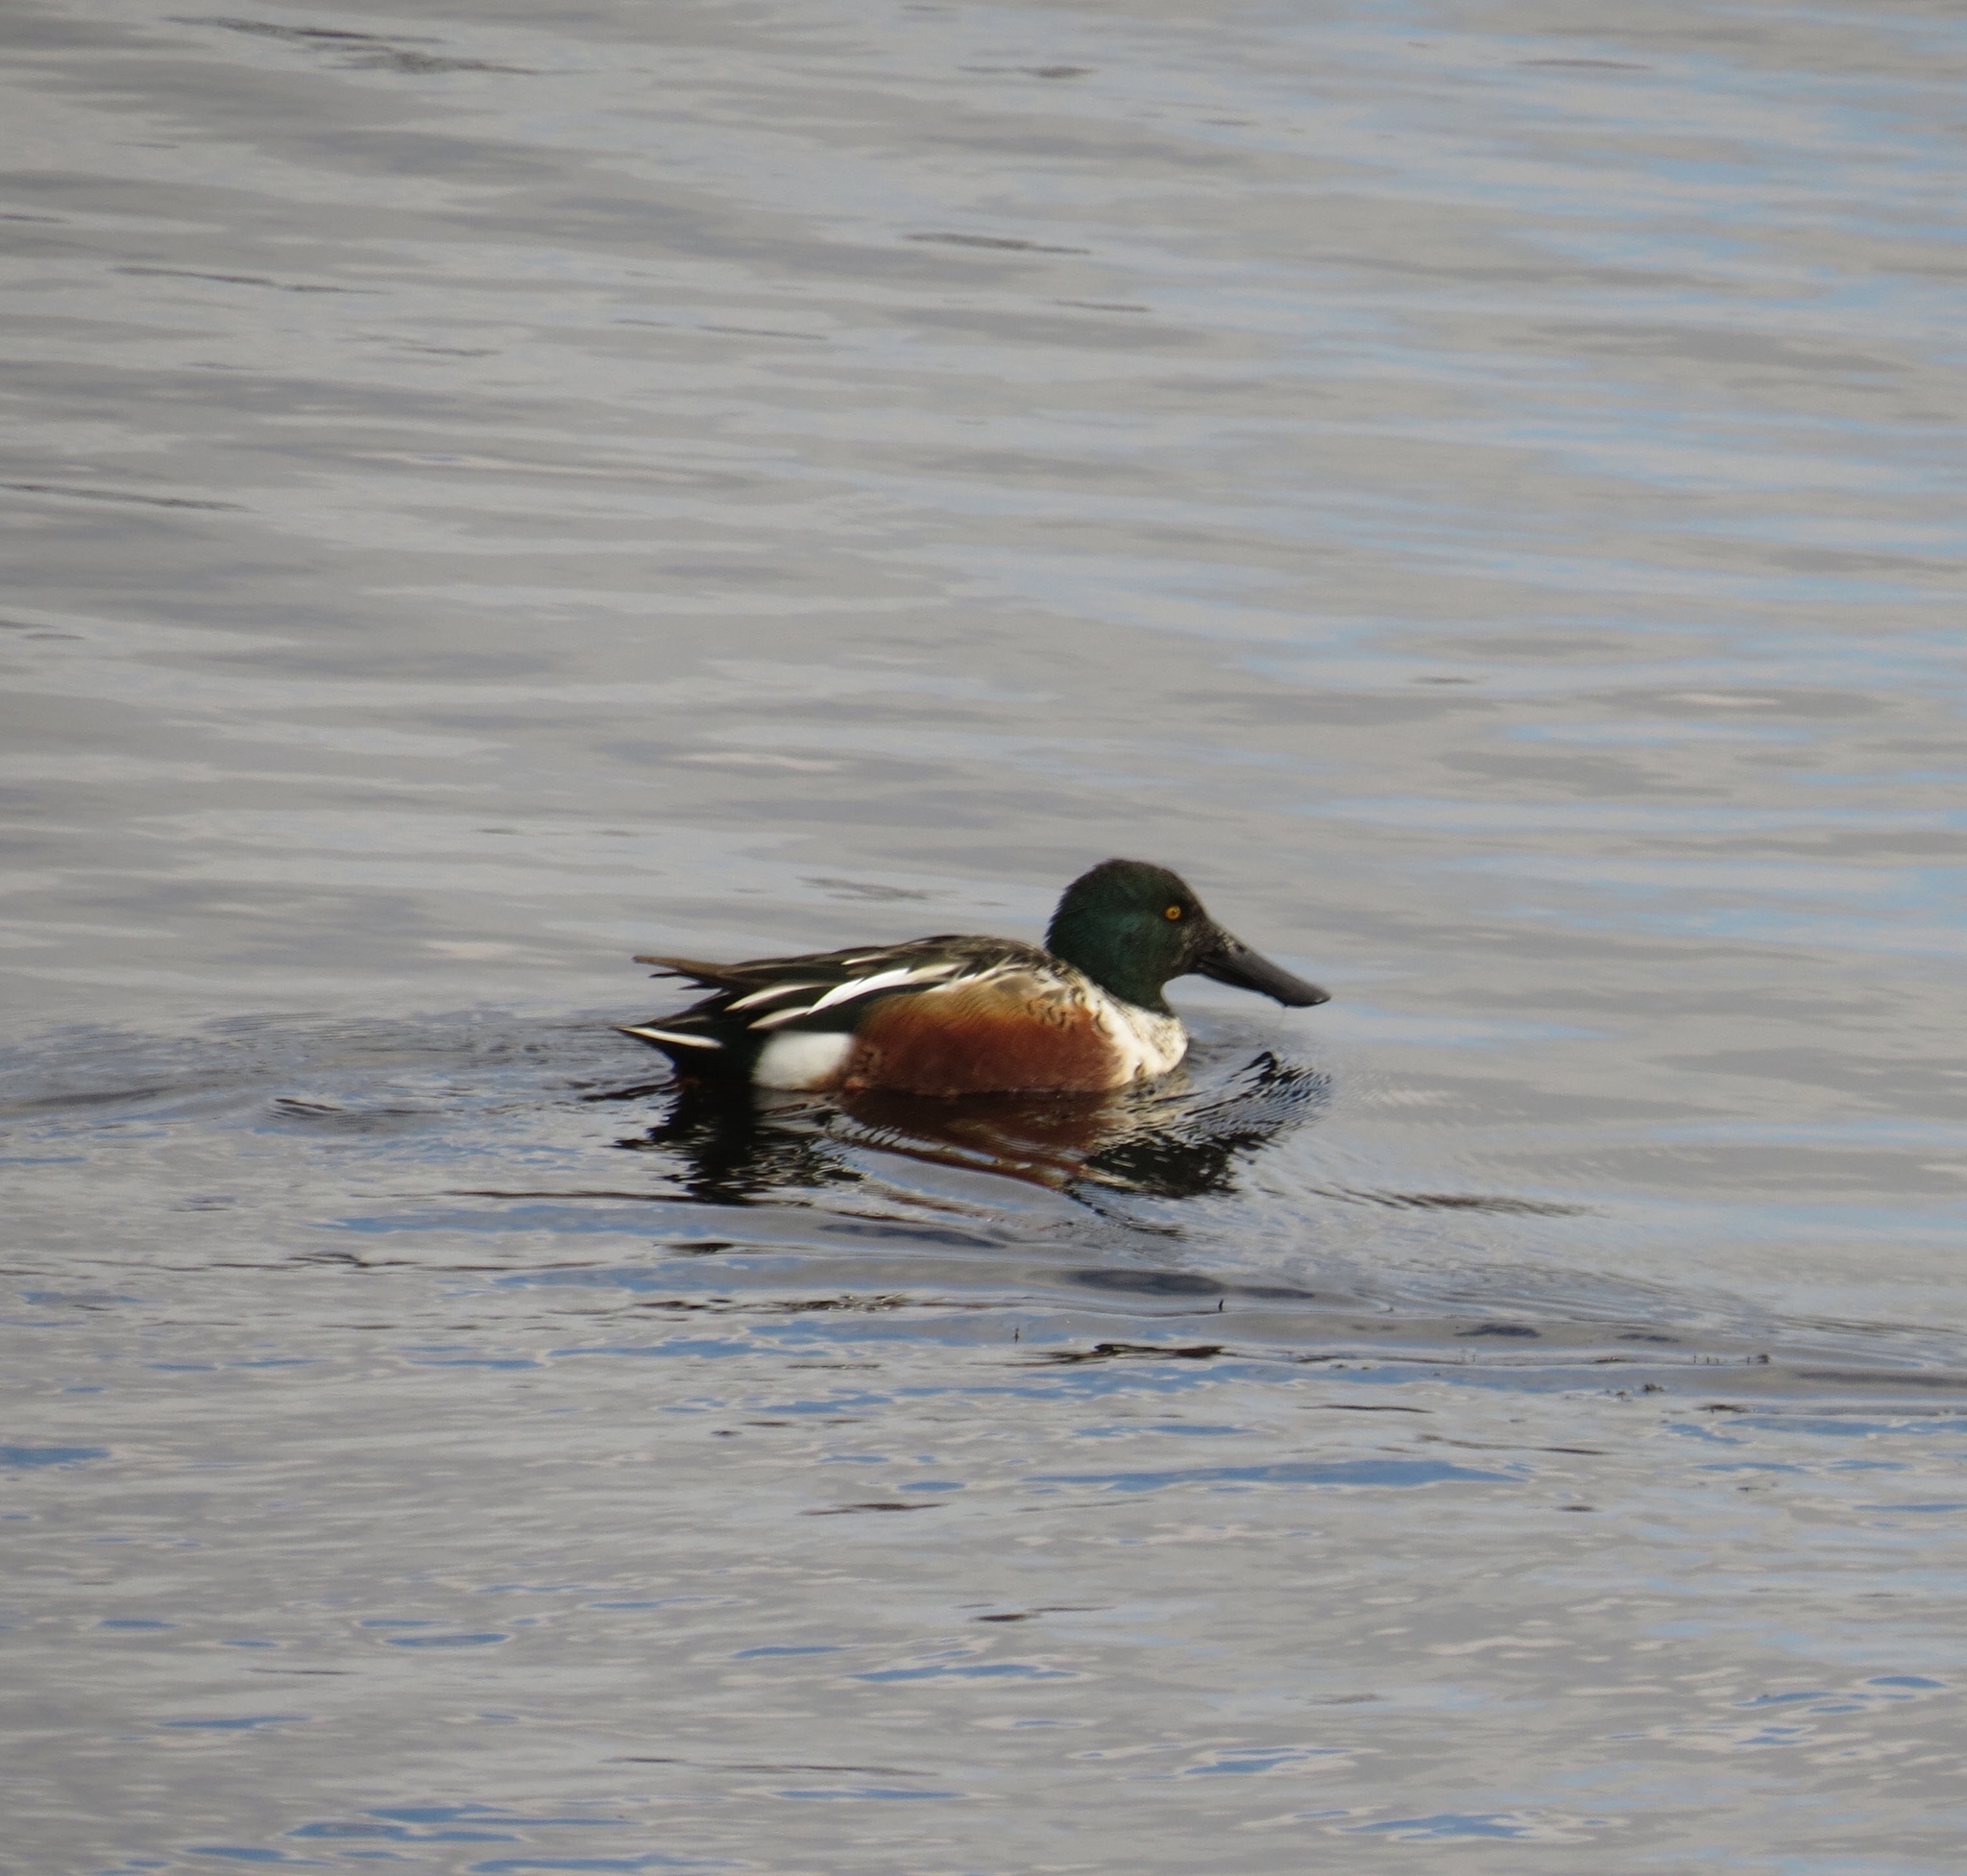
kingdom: Animalia
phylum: Chordata
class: Aves
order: Anseriformes
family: Anatidae
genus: Spatula
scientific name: Spatula clypeata
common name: Northern shoveler
